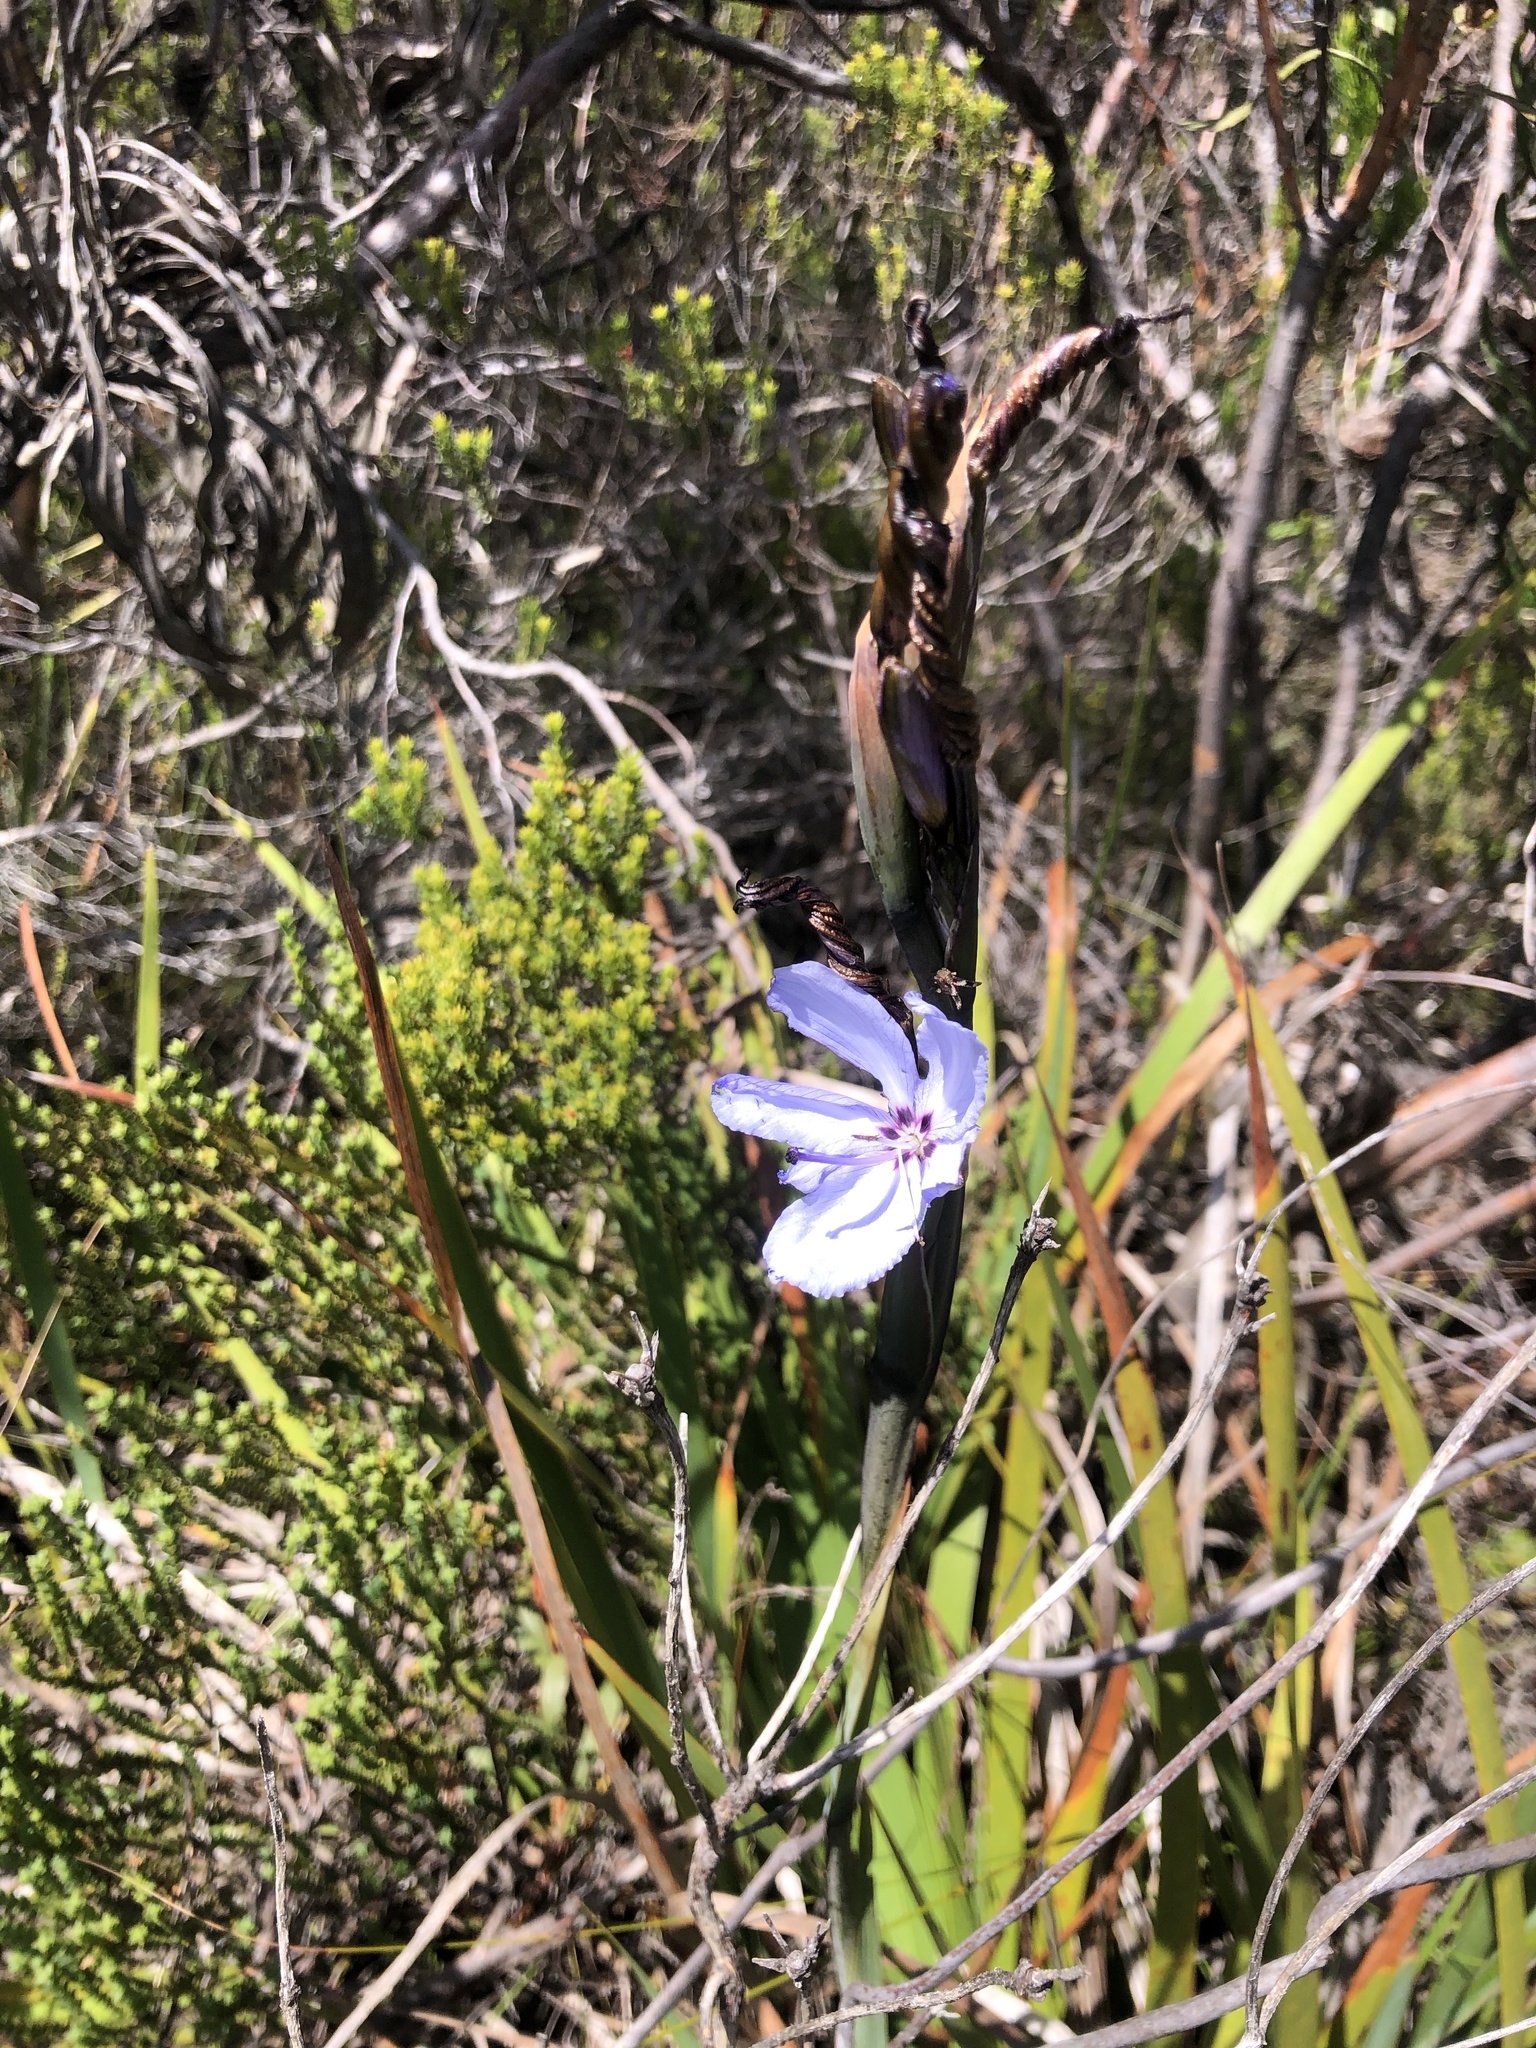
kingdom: Plantae
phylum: Tracheophyta
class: Liliopsida
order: Asparagales
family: Iridaceae
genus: Aristea
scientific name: Aristea spiralis
